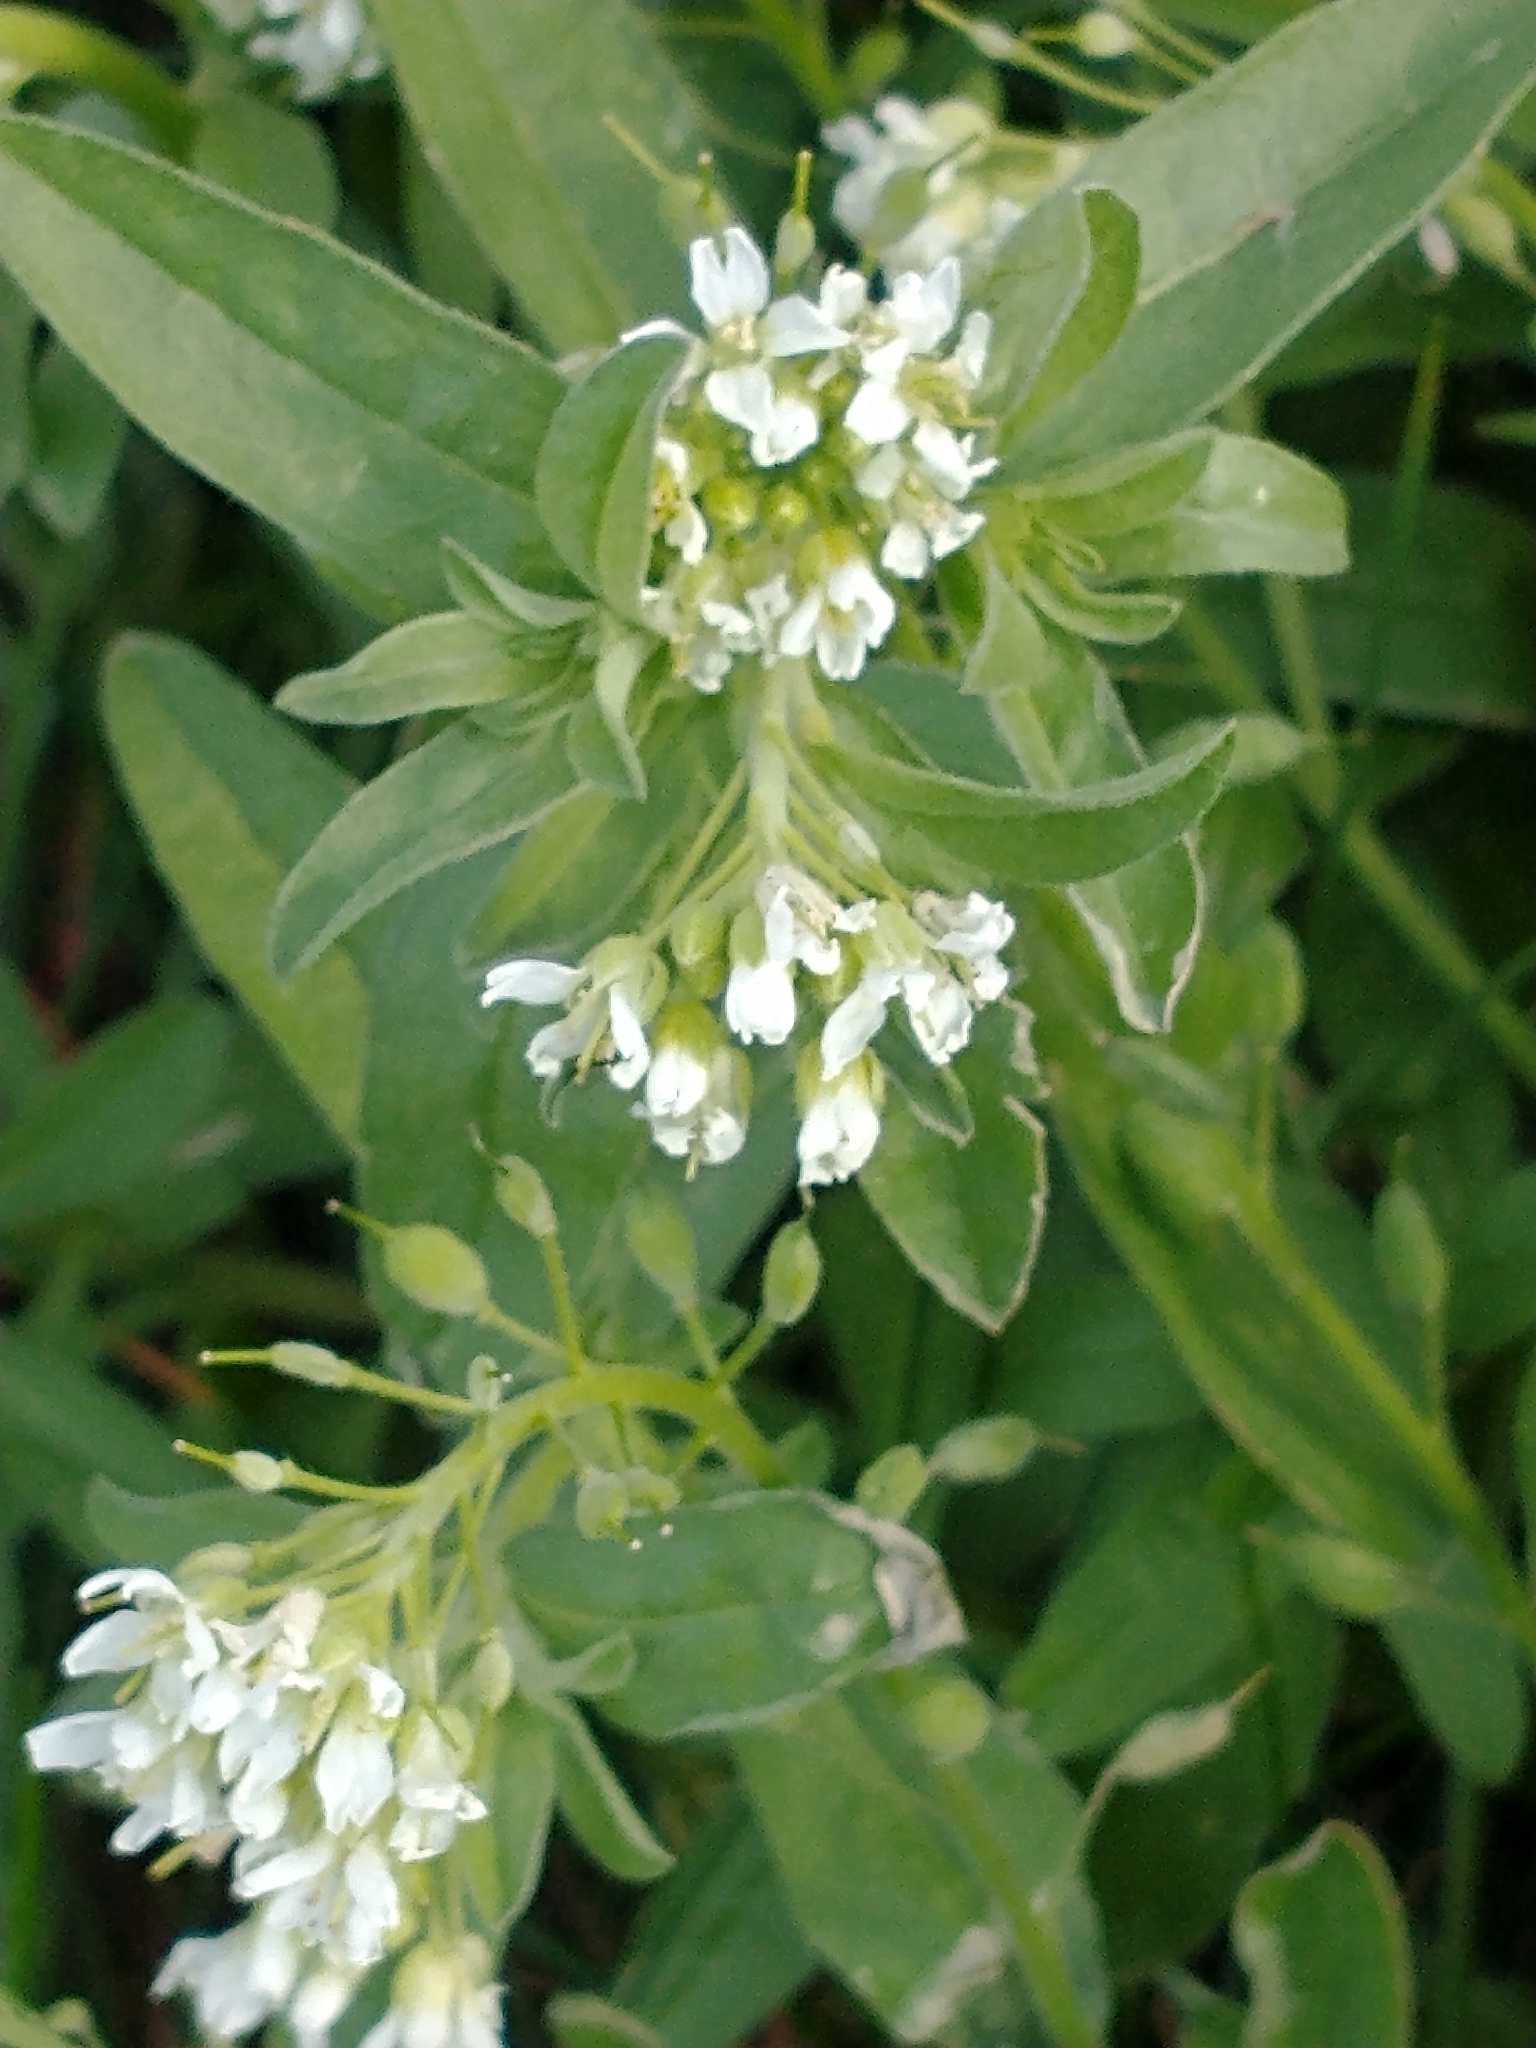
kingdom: Plantae
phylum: Tracheophyta
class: Magnoliopsida
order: Brassicales
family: Brassicaceae
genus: Berteroa
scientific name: Berteroa incana
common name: Hoary alison
